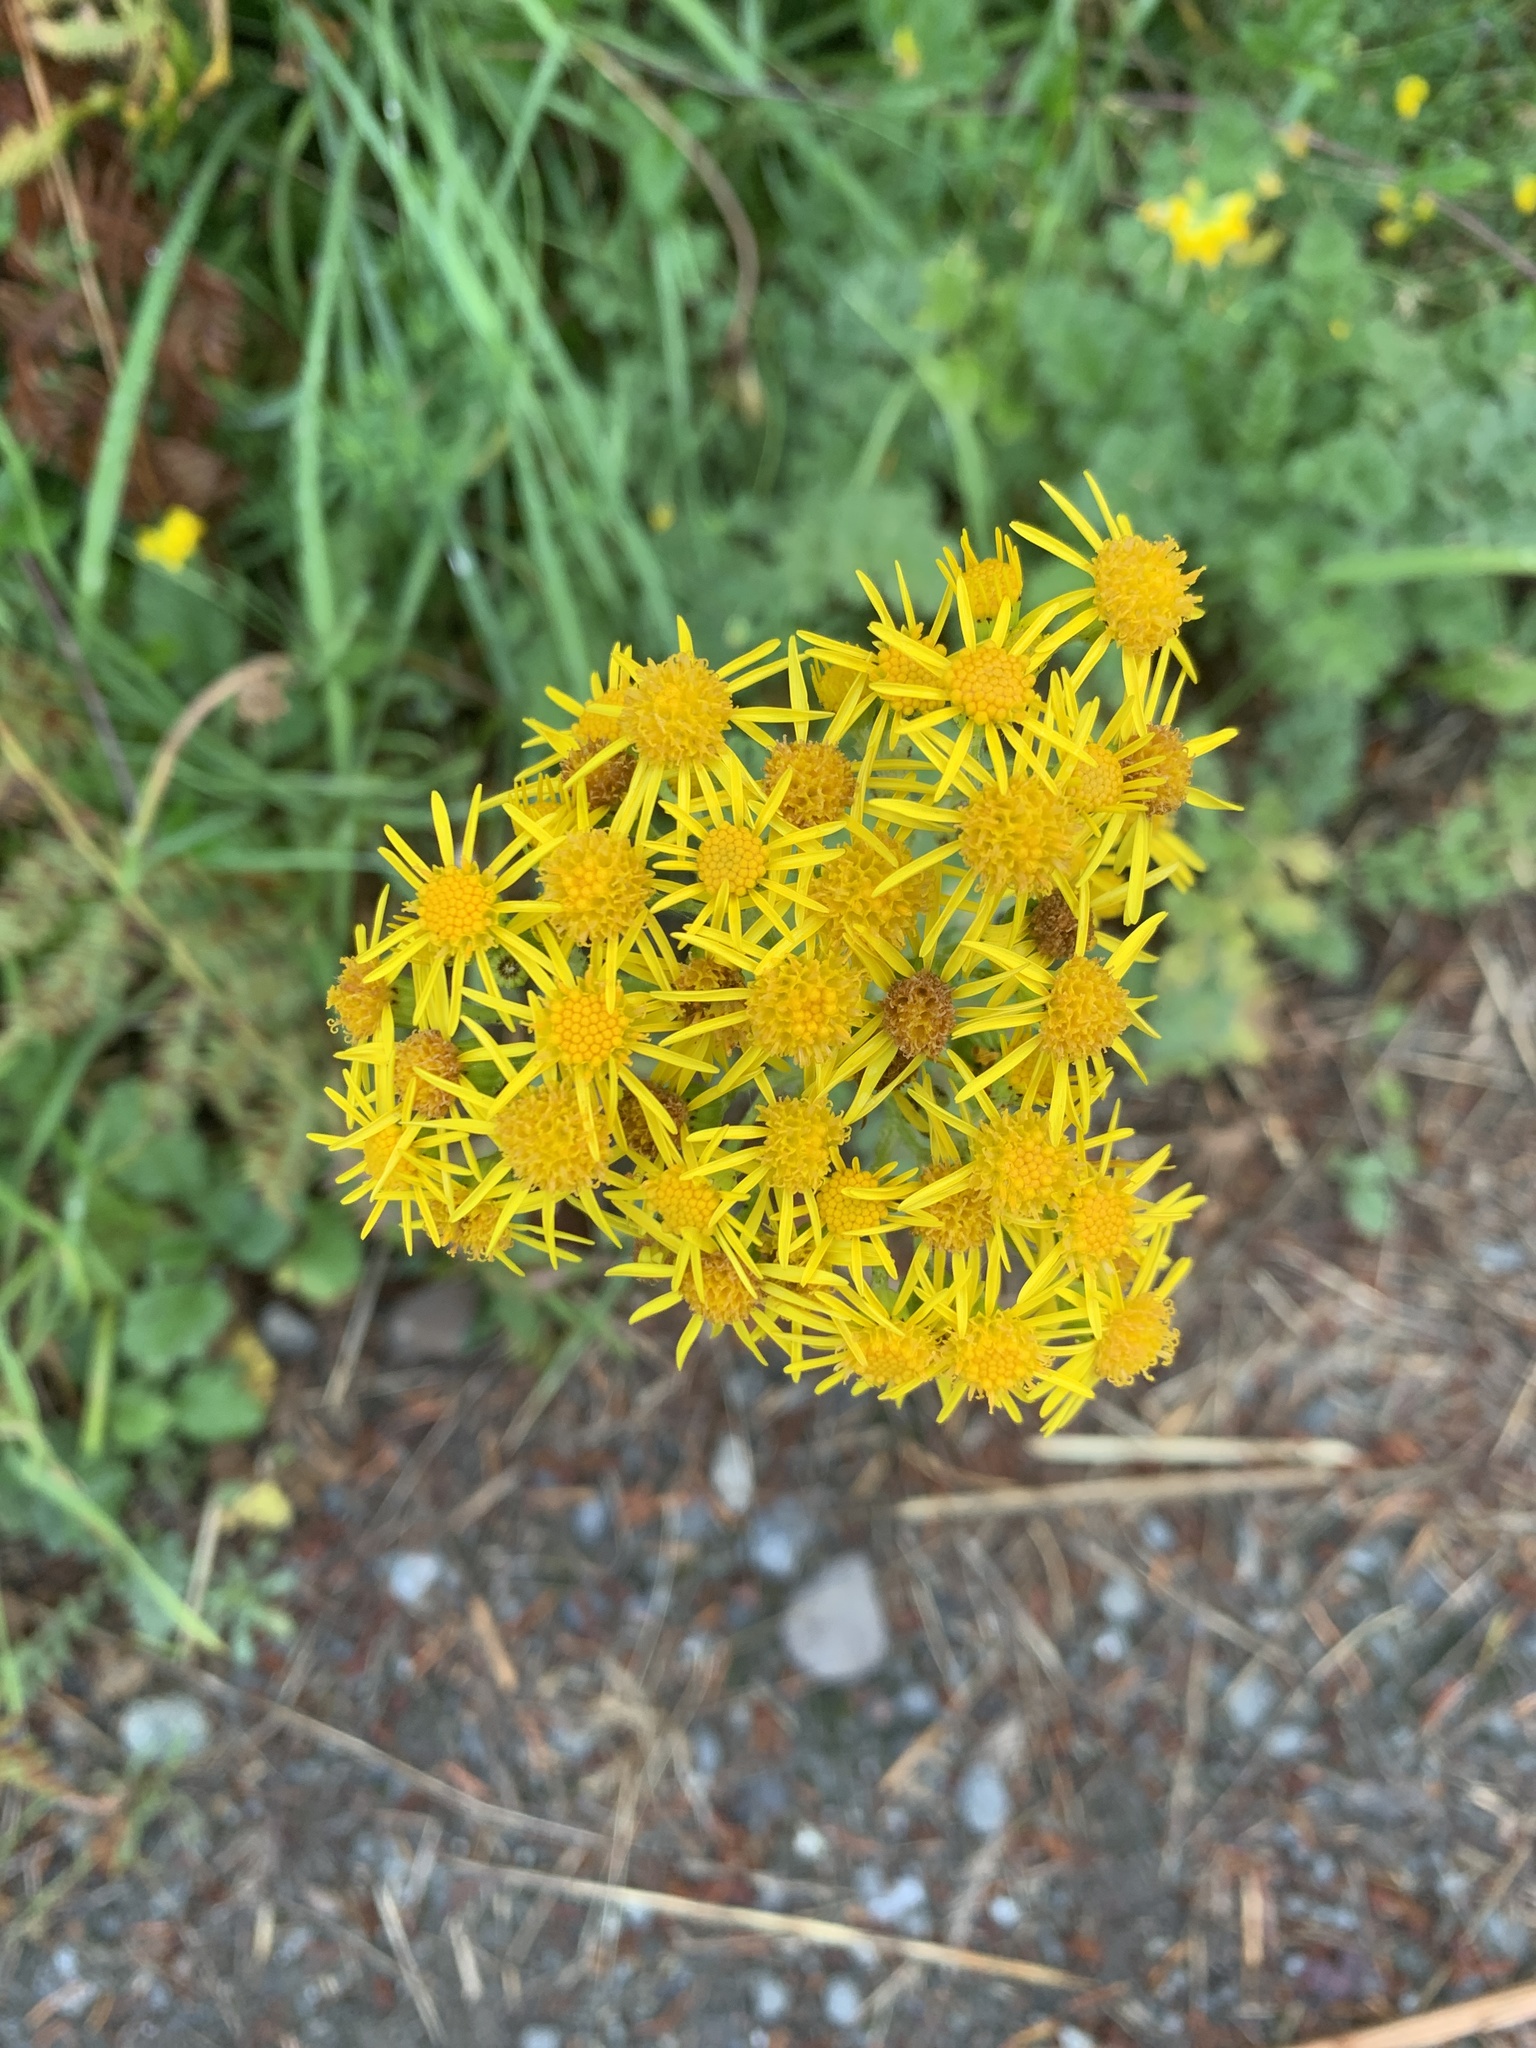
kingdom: Plantae
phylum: Tracheophyta
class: Magnoliopsida
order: Asterales
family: Asteraceae
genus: Jacobaea
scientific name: Jacobaea vulgaris
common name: Stinking willie
